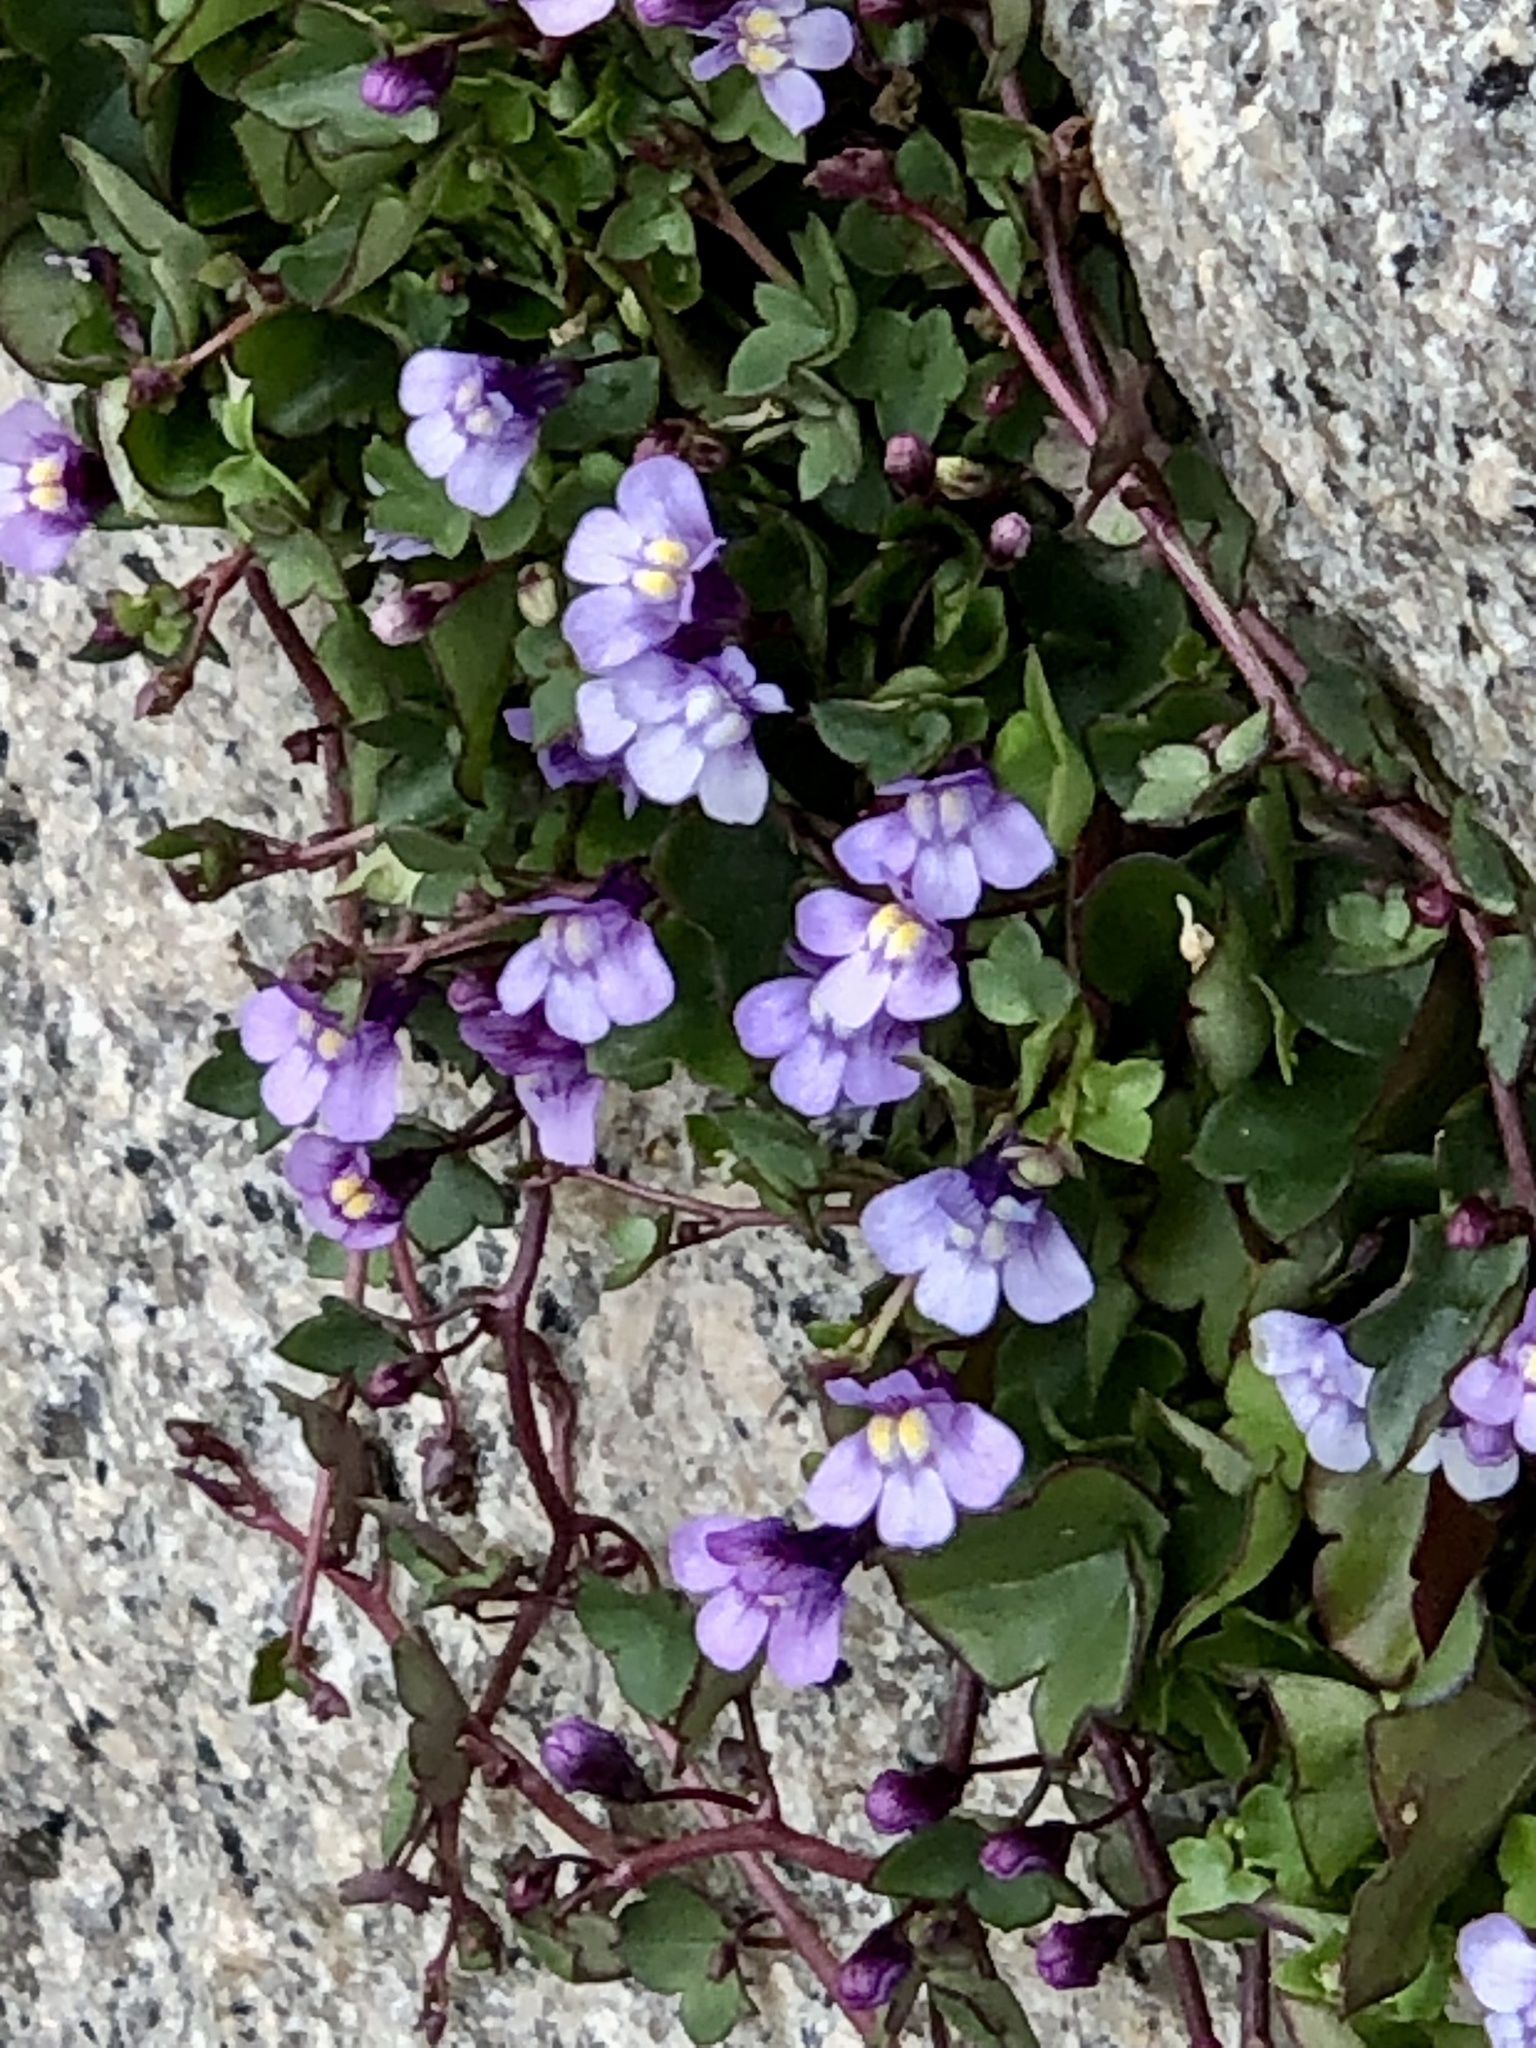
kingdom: Plantae
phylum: Tracheophyta
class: Magnoliopsida
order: Lamiales
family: Plantaginaceae
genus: Cymbalaria
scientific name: Cymbalaria muralis
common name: Ivy-leaved toadflax
